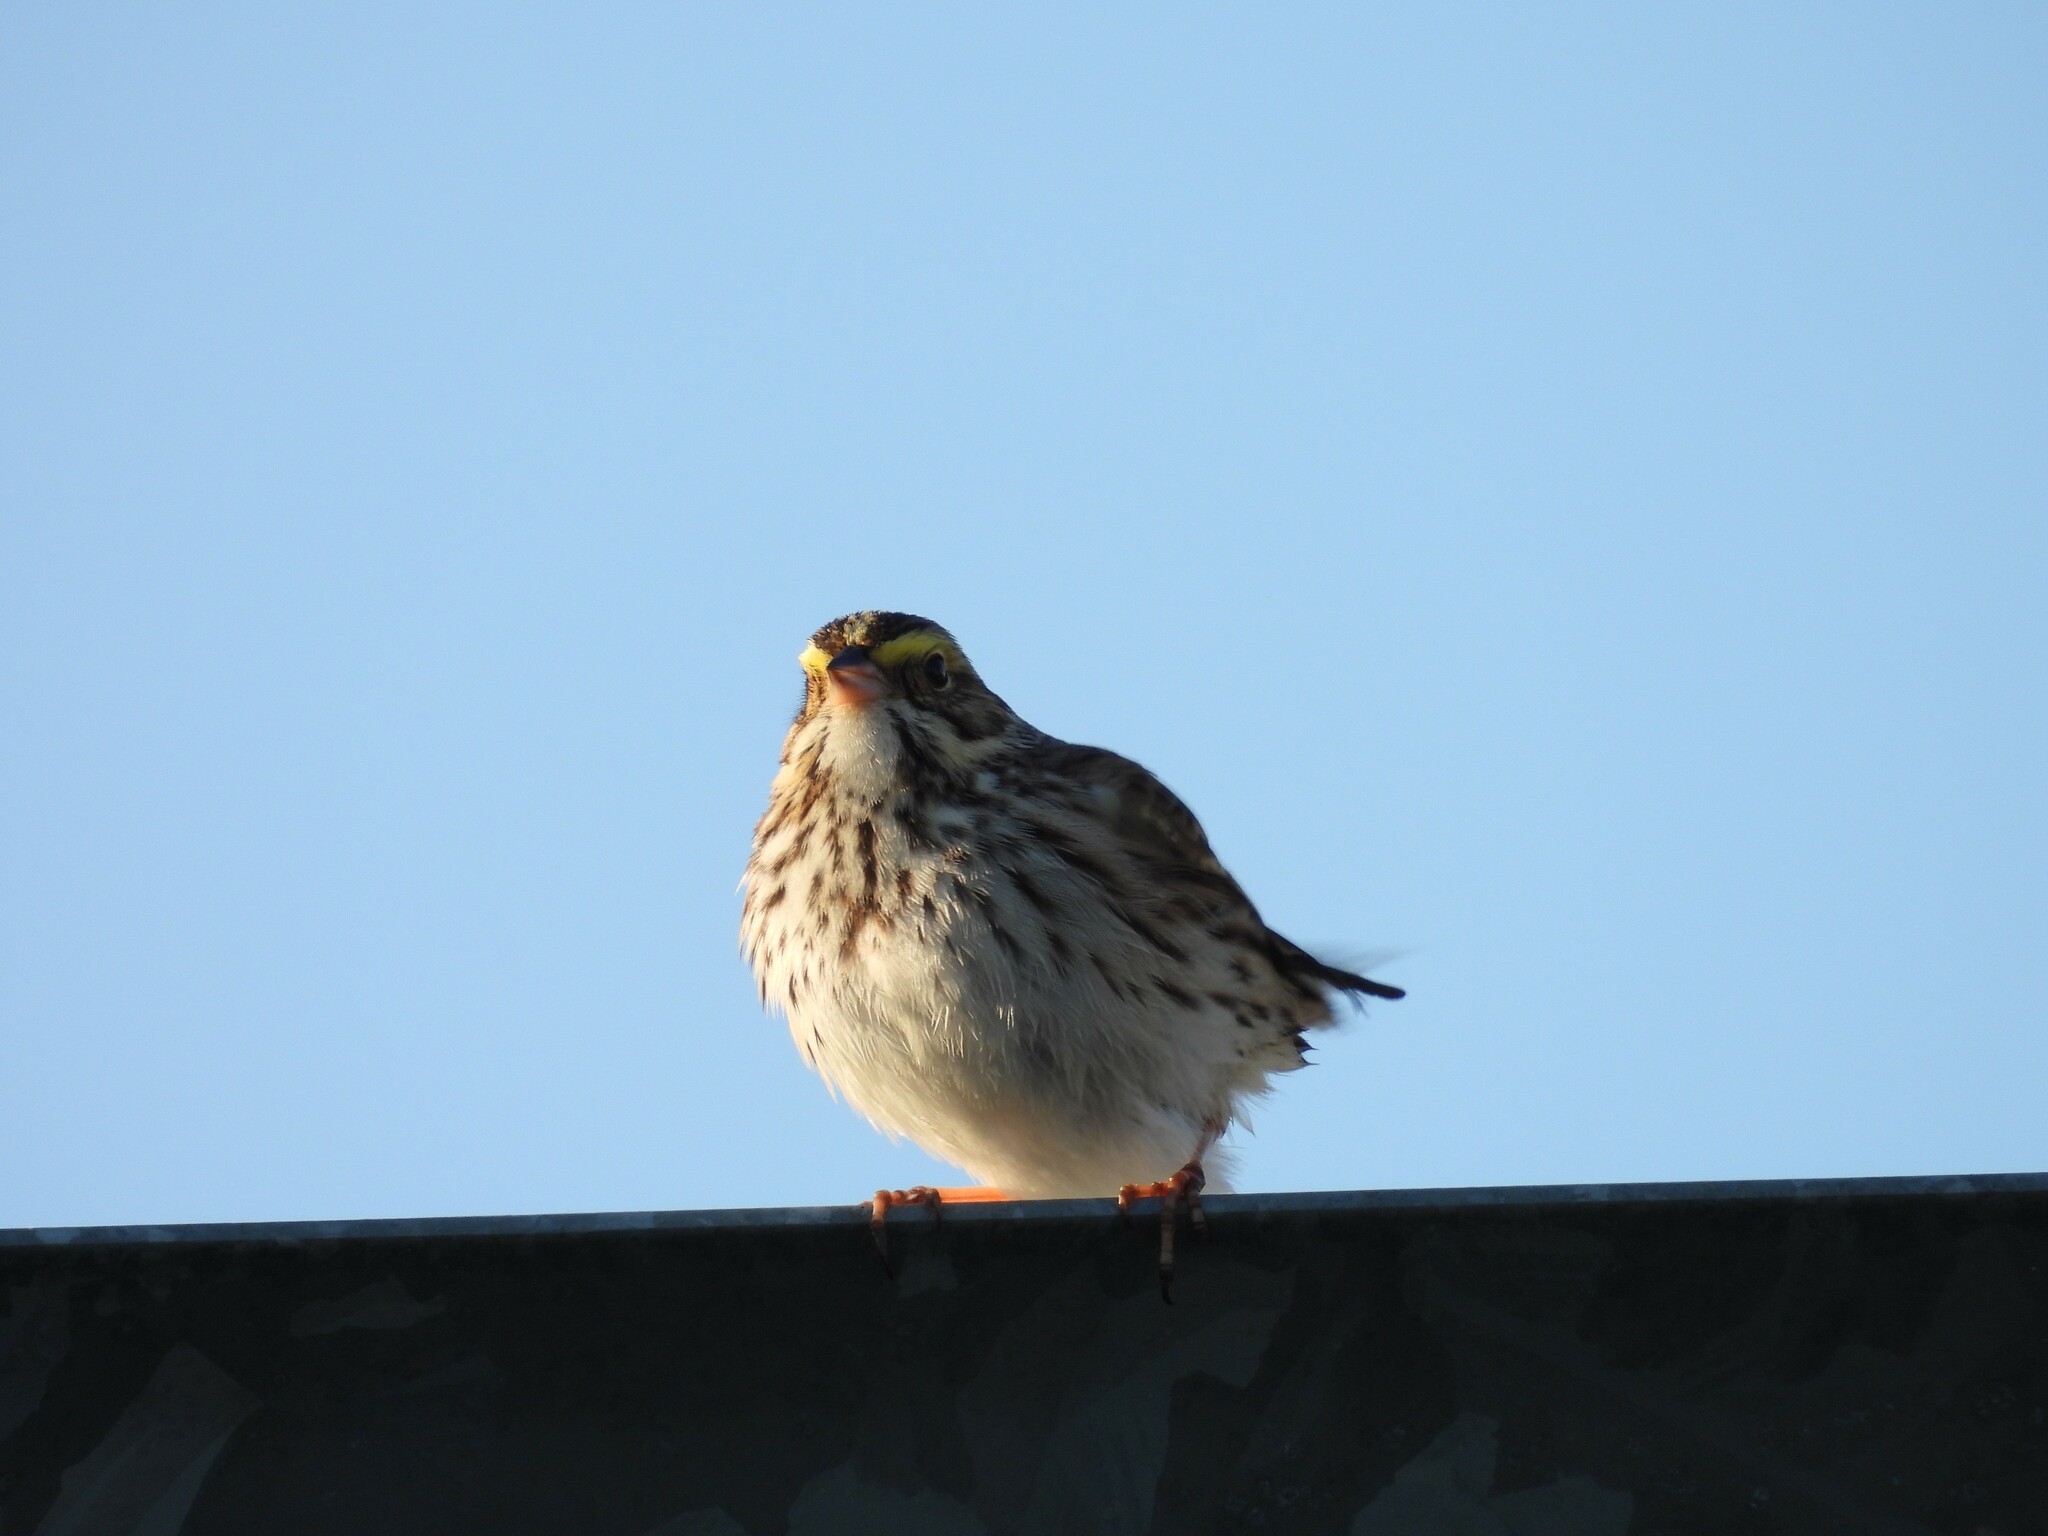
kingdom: Animalia
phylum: Chordata
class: Aves
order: Passeriformes
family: Passerellidae
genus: Passerculus
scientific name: Passerculus sandwichensis
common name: Savannah sparrow
